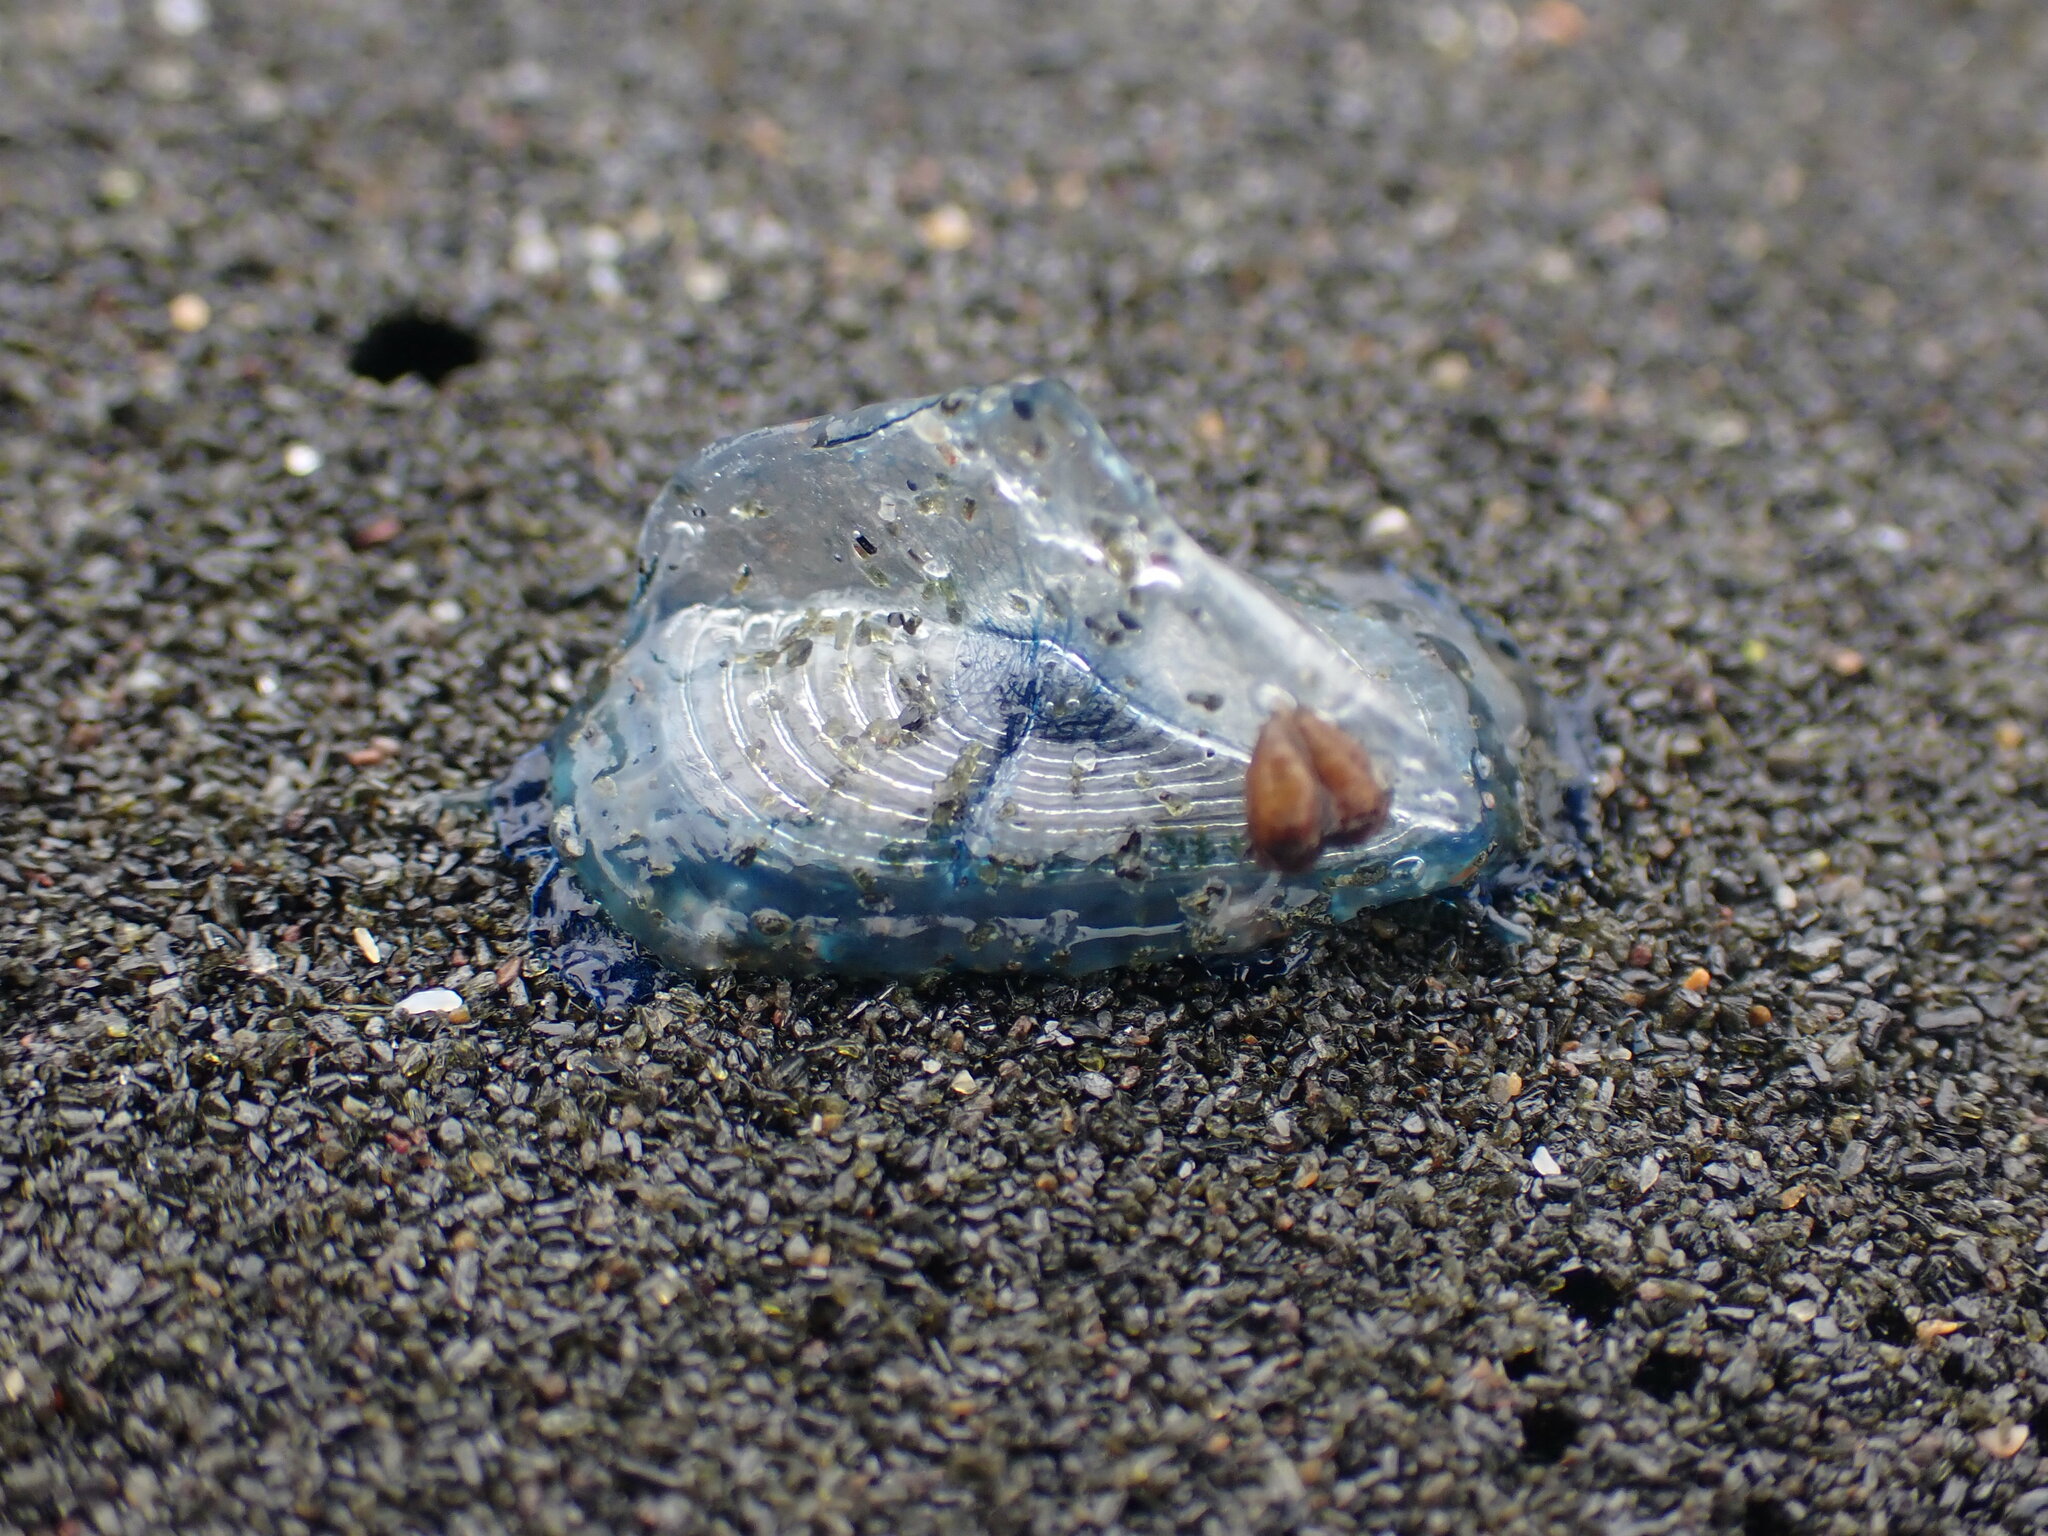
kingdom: Animalia
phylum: Cnidaria
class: Hydrozoa
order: Anthoathecata
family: Porpitidae
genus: Velella
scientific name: Velella velella
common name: By-the-wind-sailor
